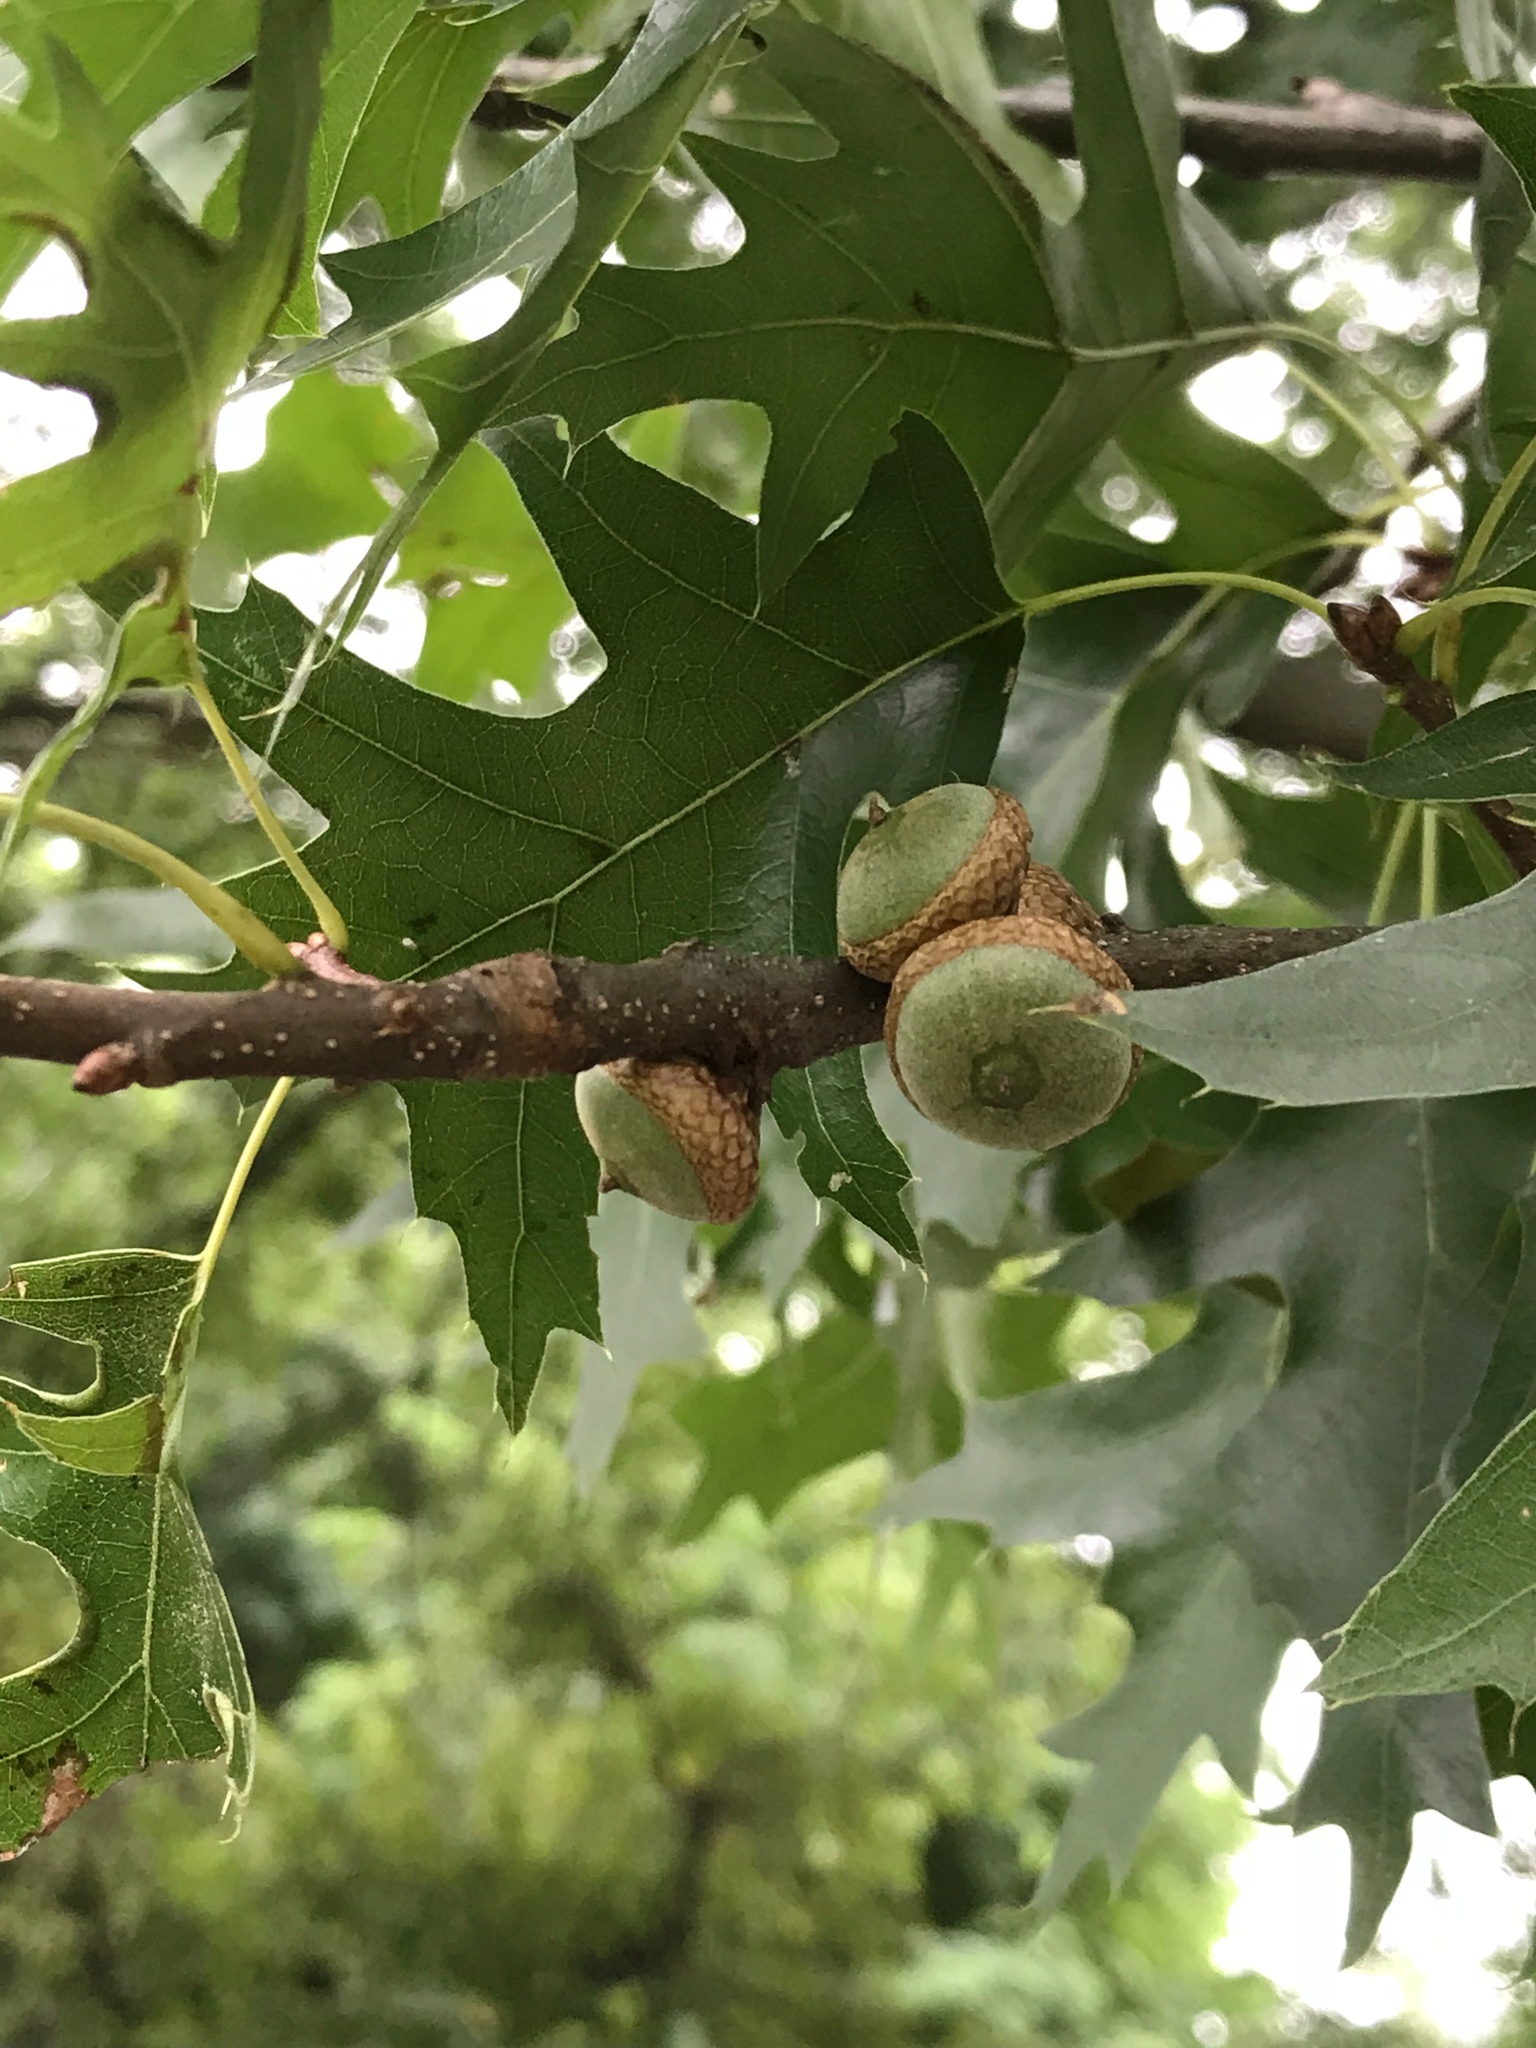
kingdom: Plantae
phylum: Tracheophyta
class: Magnoliopsida
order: Fagales
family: Fagaceae
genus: Quercus
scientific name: Quercus palustris
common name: Pin oak
